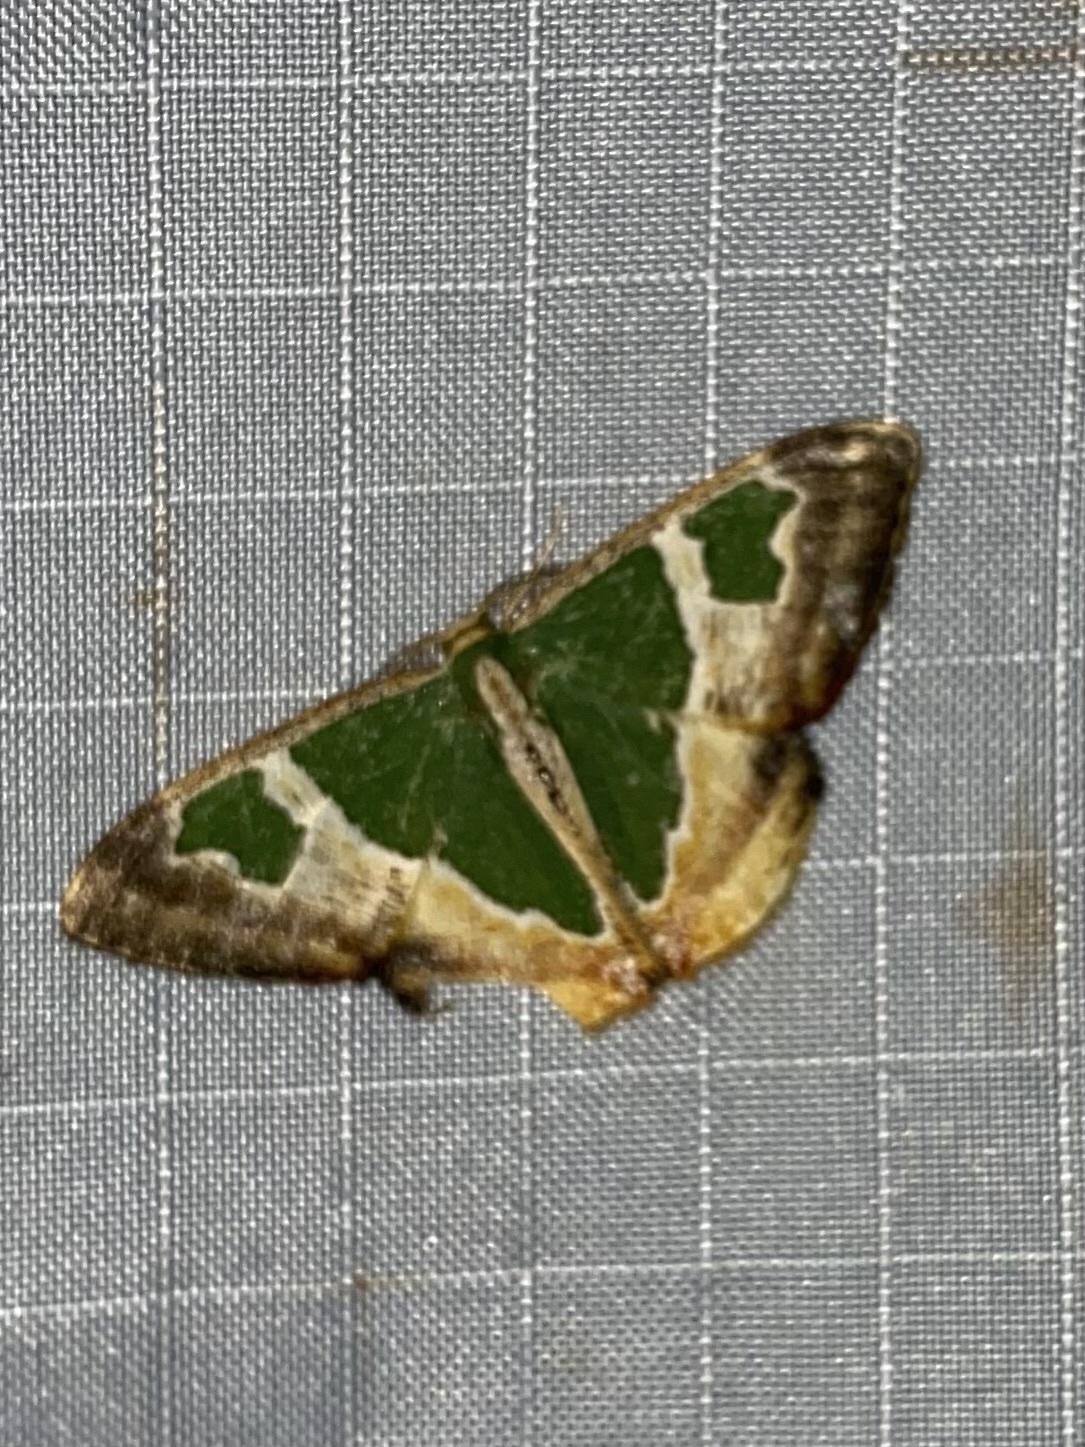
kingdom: Animalia
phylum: Arthropoda
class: Insecta
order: Lepidoptera
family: Geometridae
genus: Oospila
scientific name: Oospila venezuelata
